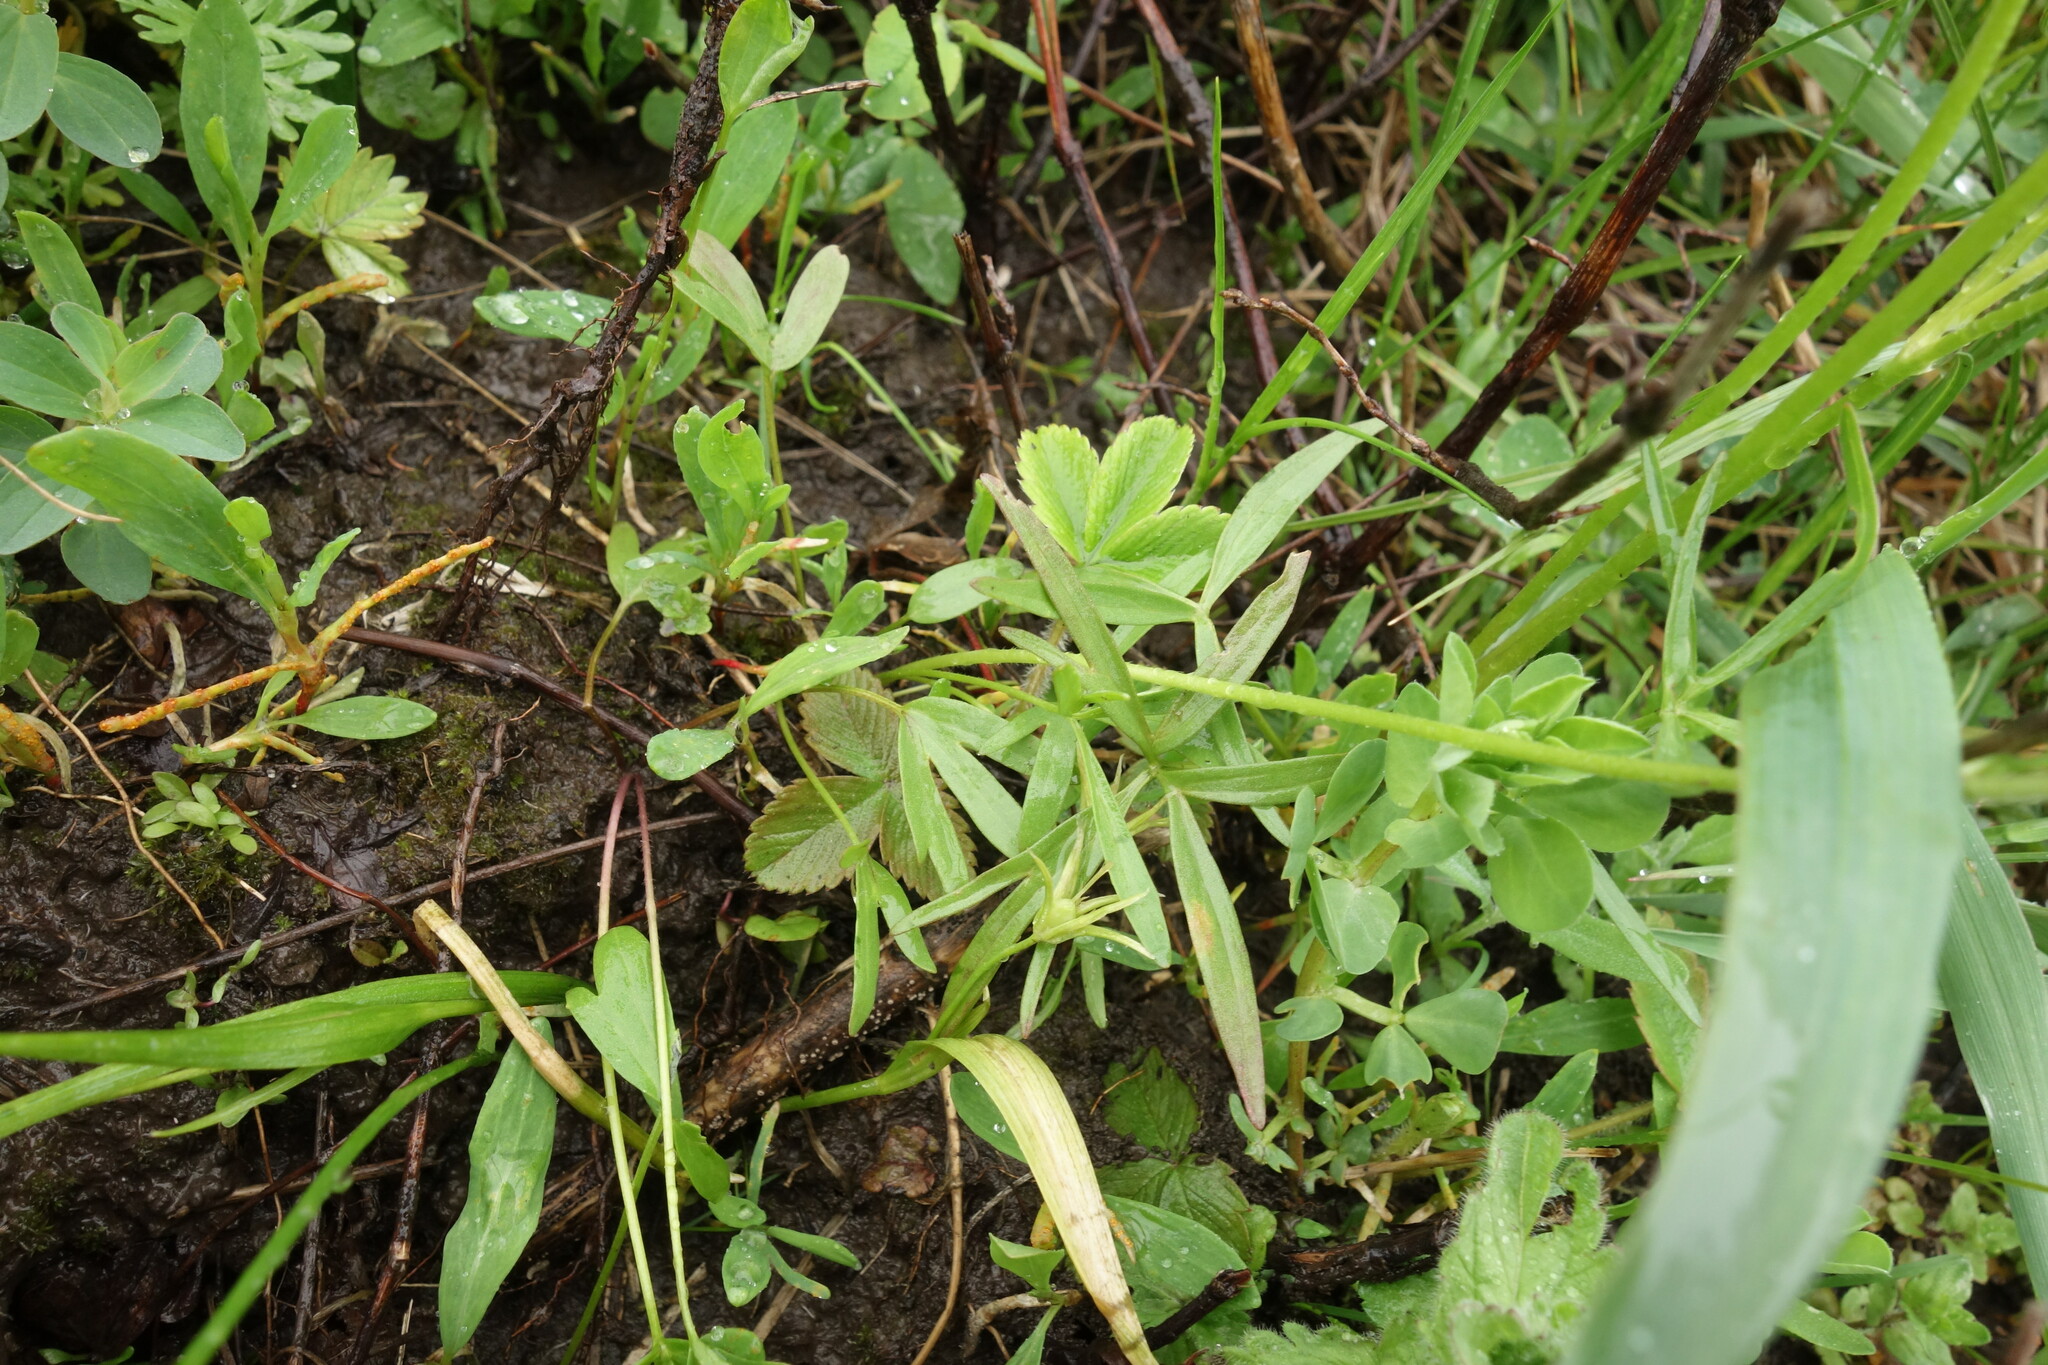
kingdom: Plantae
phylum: Tracheophyta
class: Magnoliopsida
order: Ranunculales
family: Ranunculaceae
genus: Ranunculus
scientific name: Ranunculus pedatus
